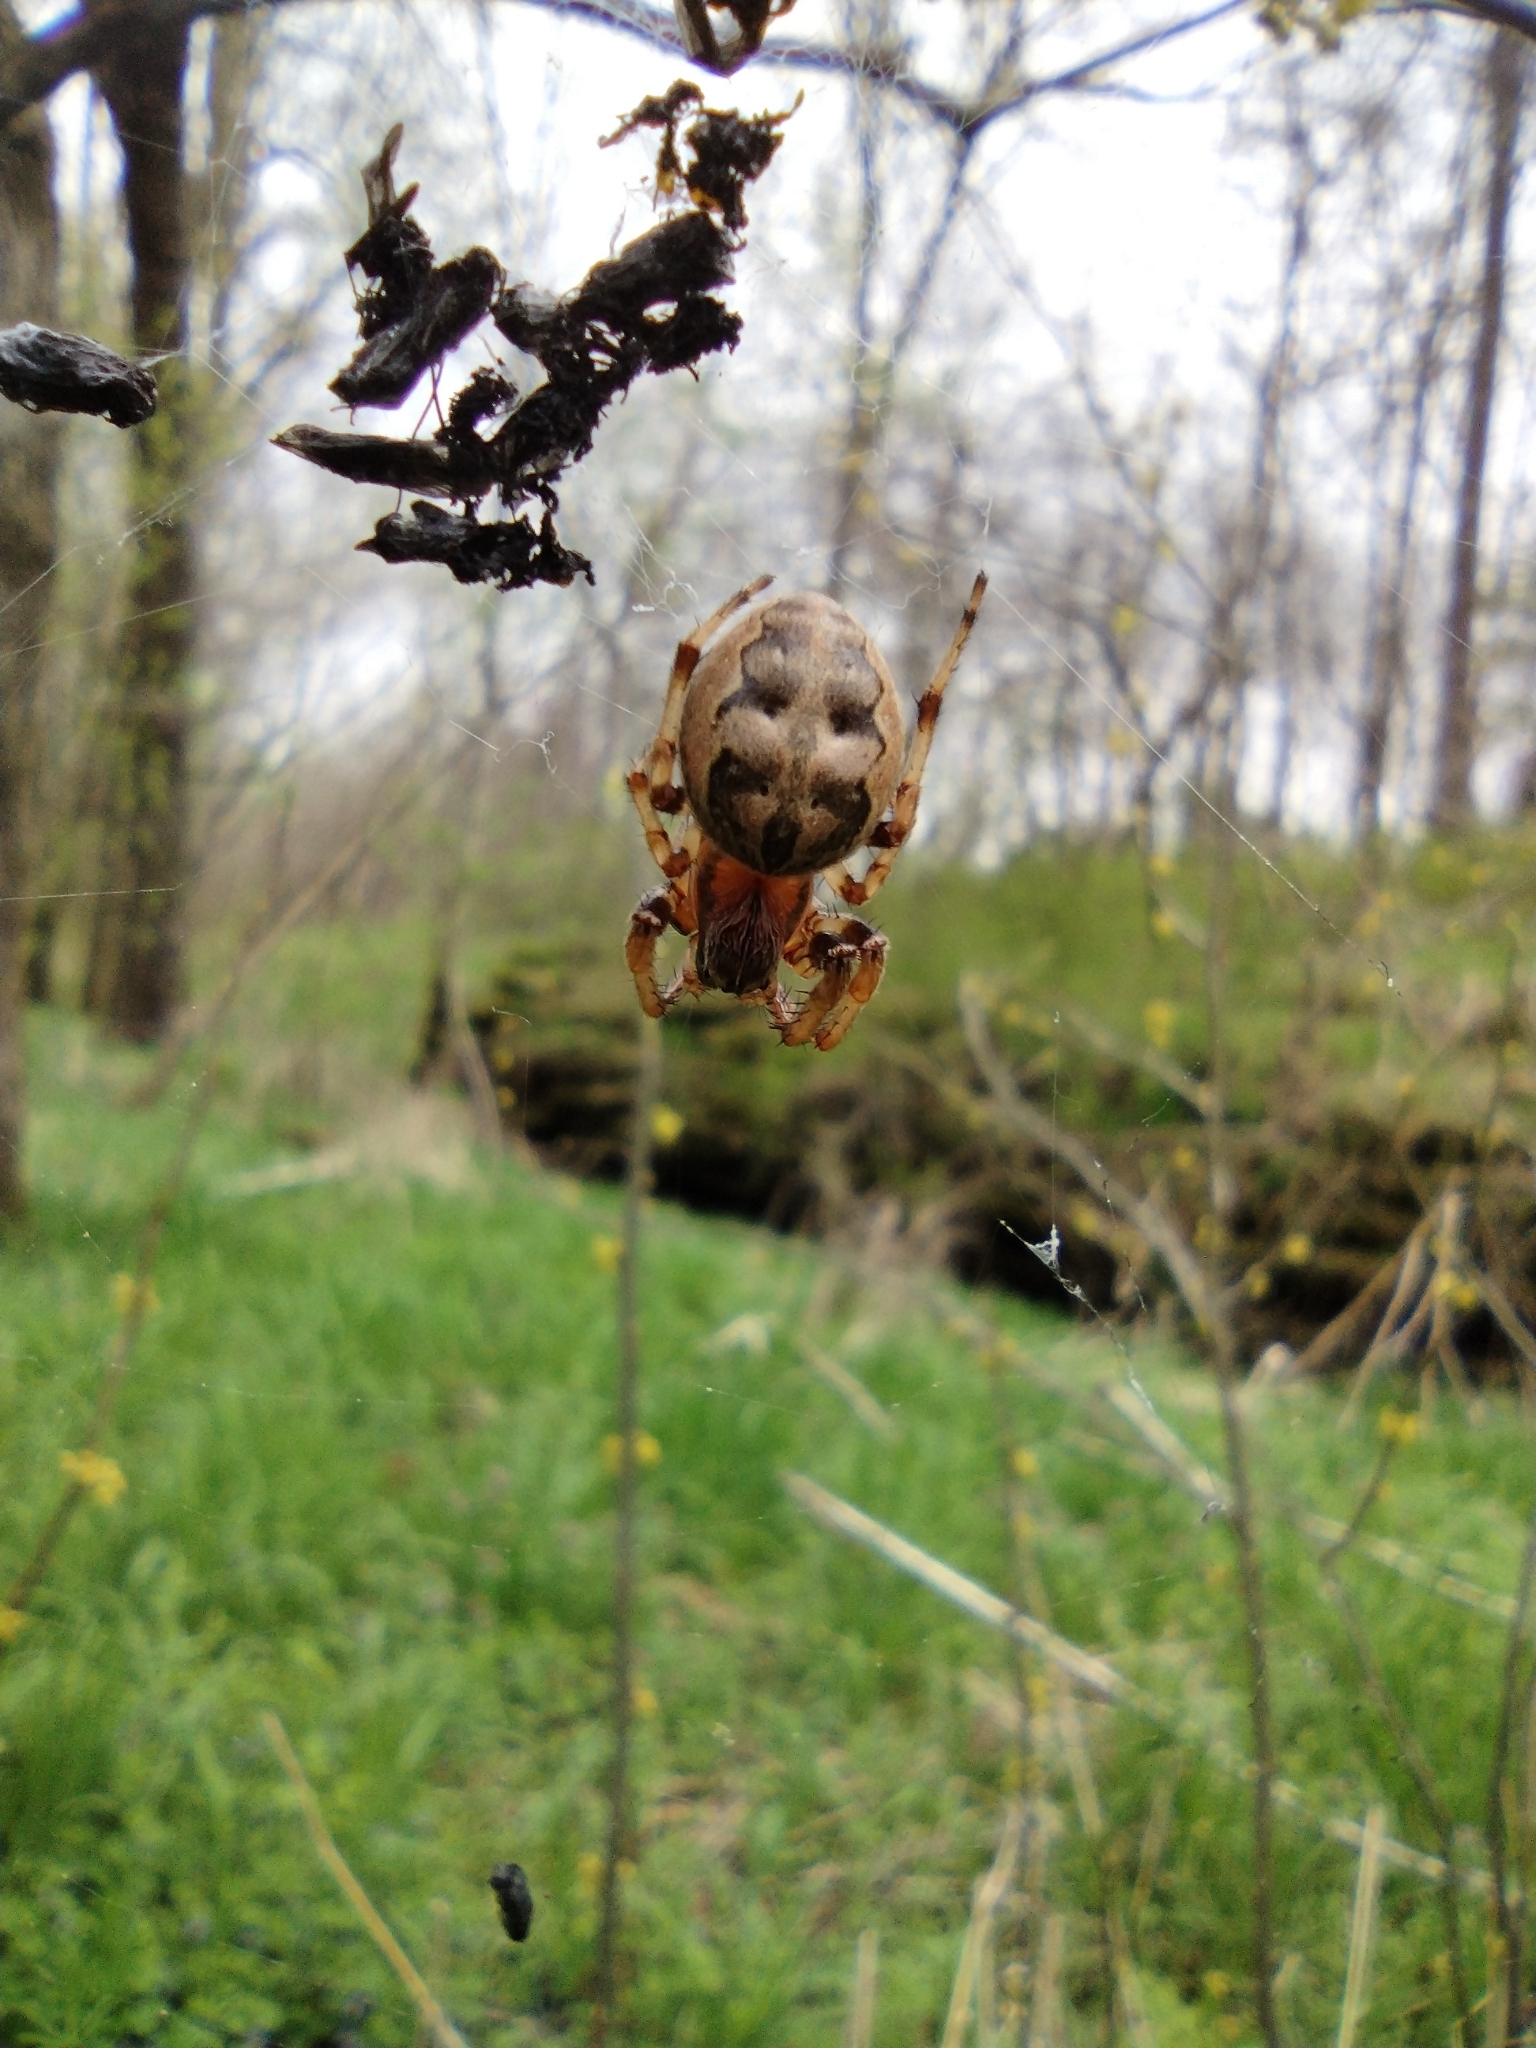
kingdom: Animalia
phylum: Arthropoda
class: Arachnida
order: Araneae
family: Araneidae
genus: Larinioides
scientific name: Larinioides cornutus
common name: Furrow orbweaver
